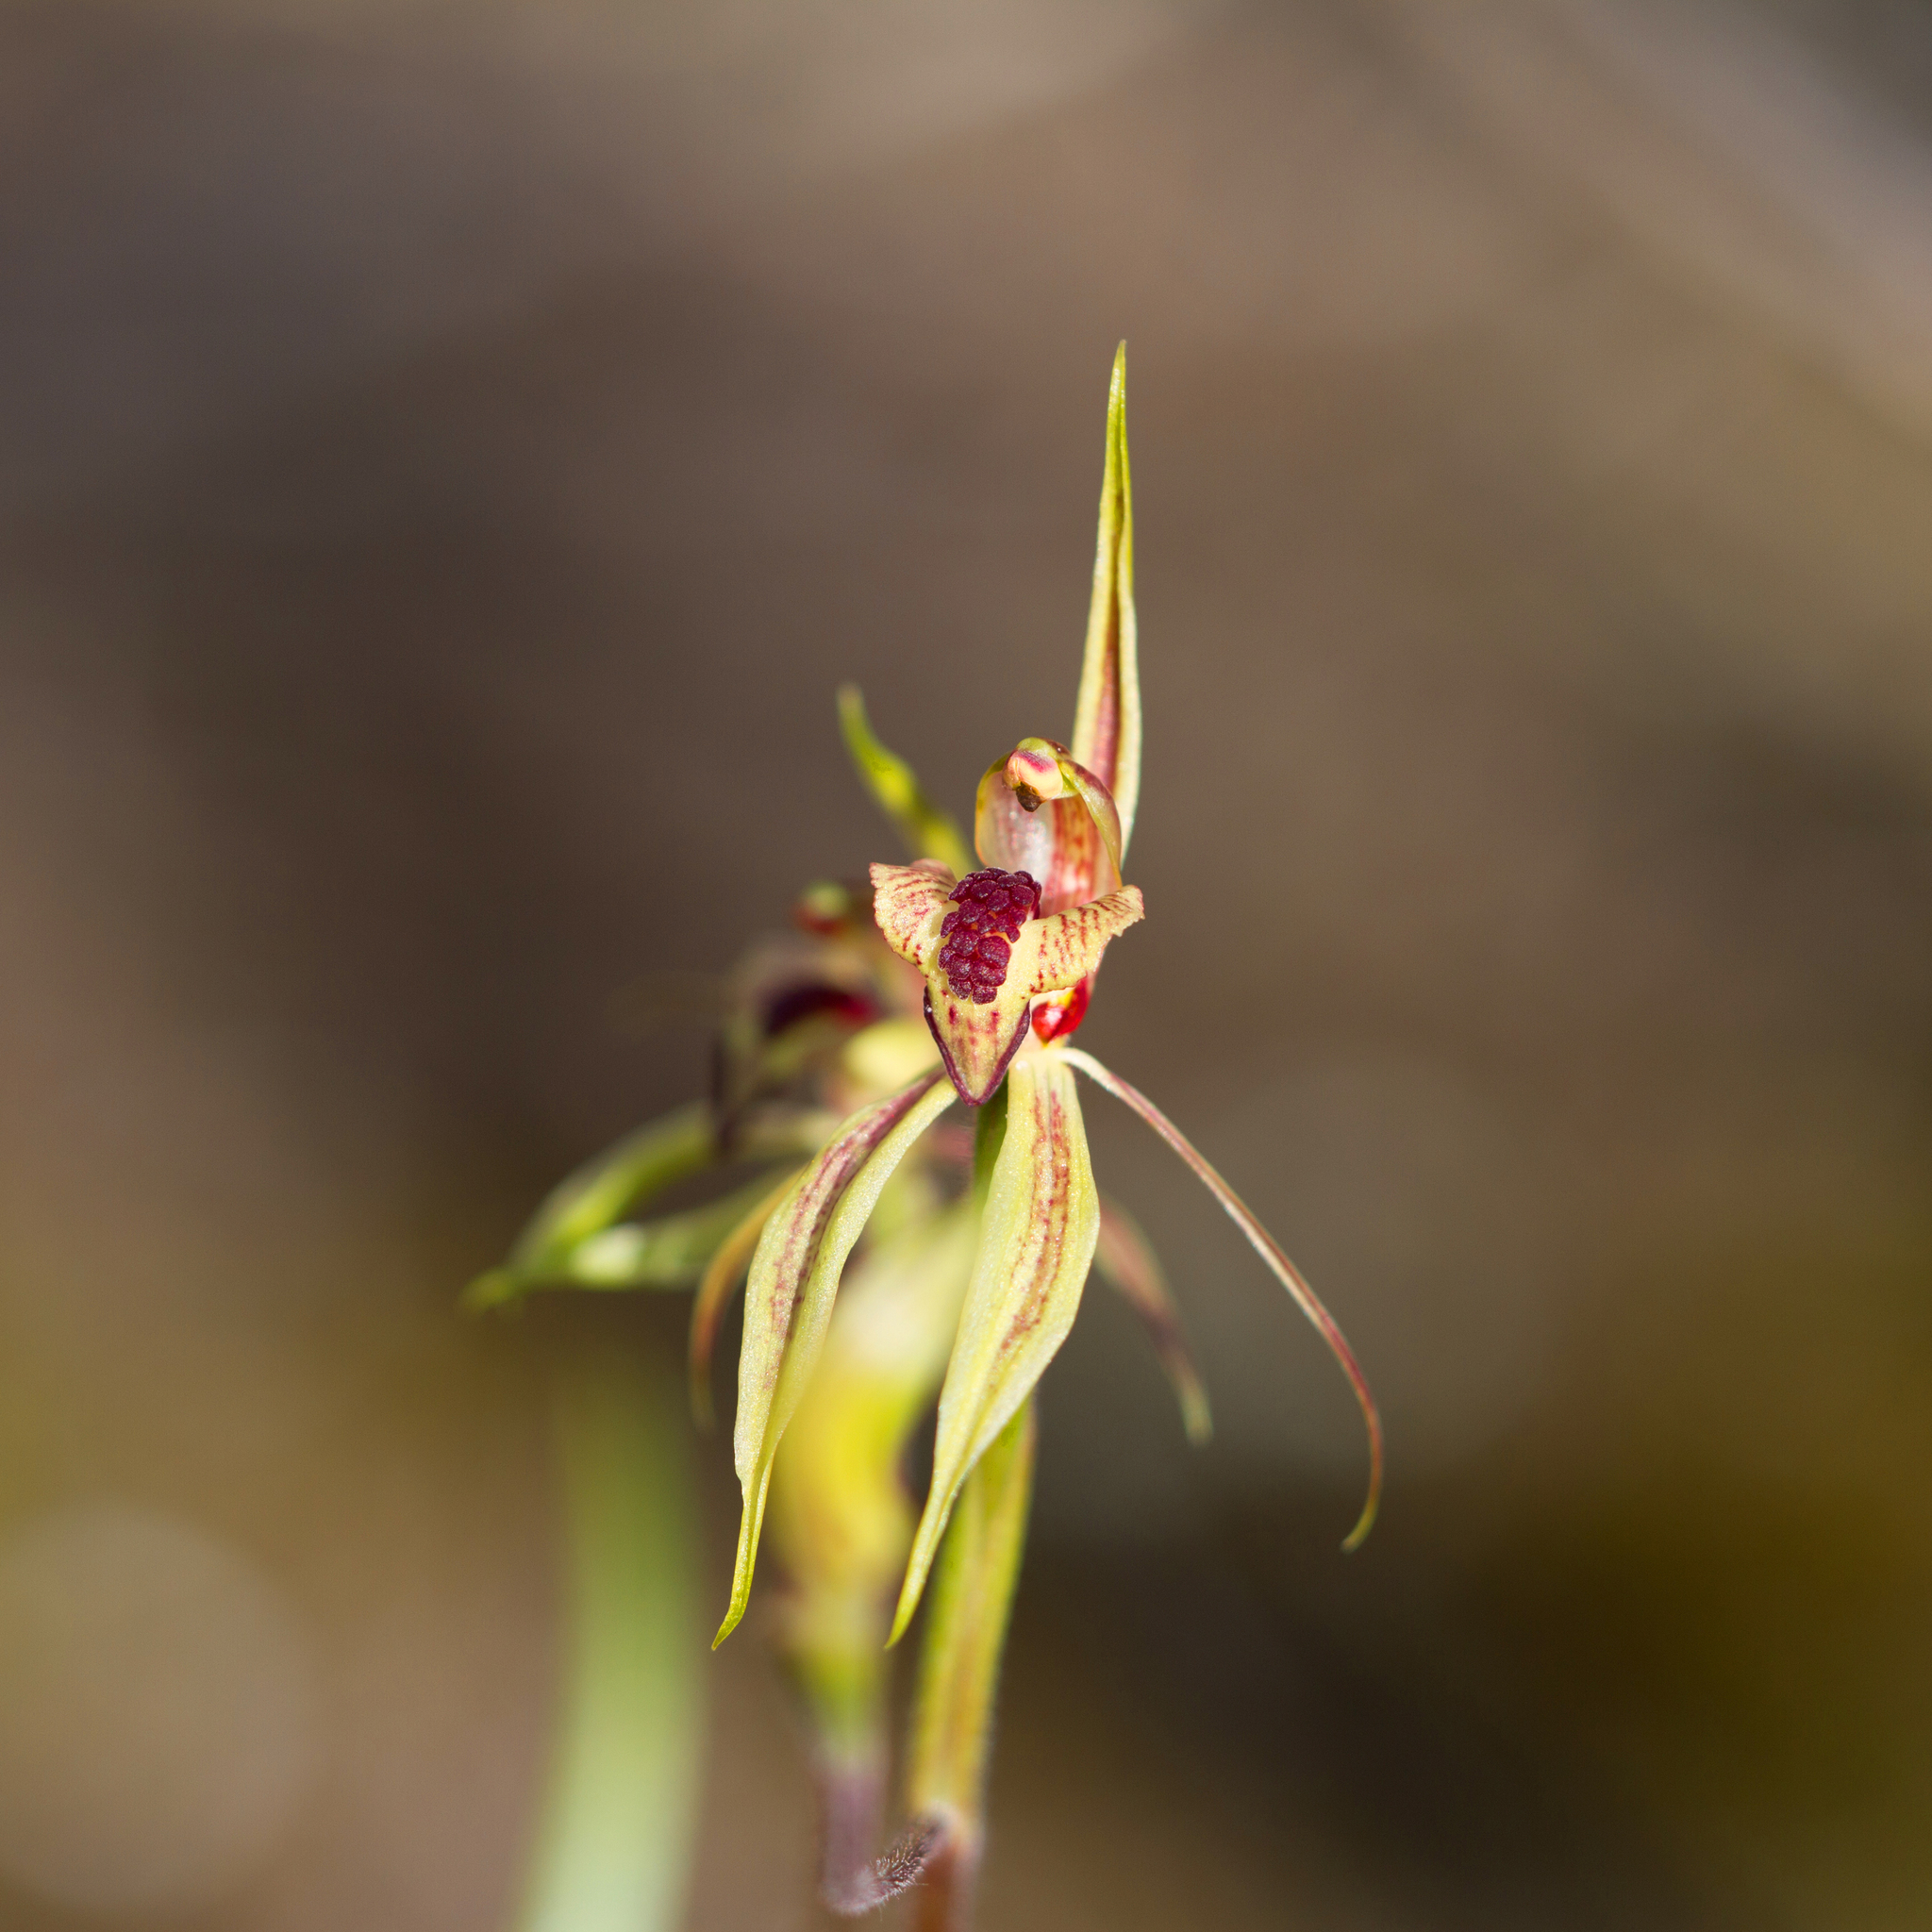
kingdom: Plantae
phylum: Tracheophyta
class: Liliopsida
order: Asparagales
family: Orchidaceae
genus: Caladenia
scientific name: Caladenia cardiochila
